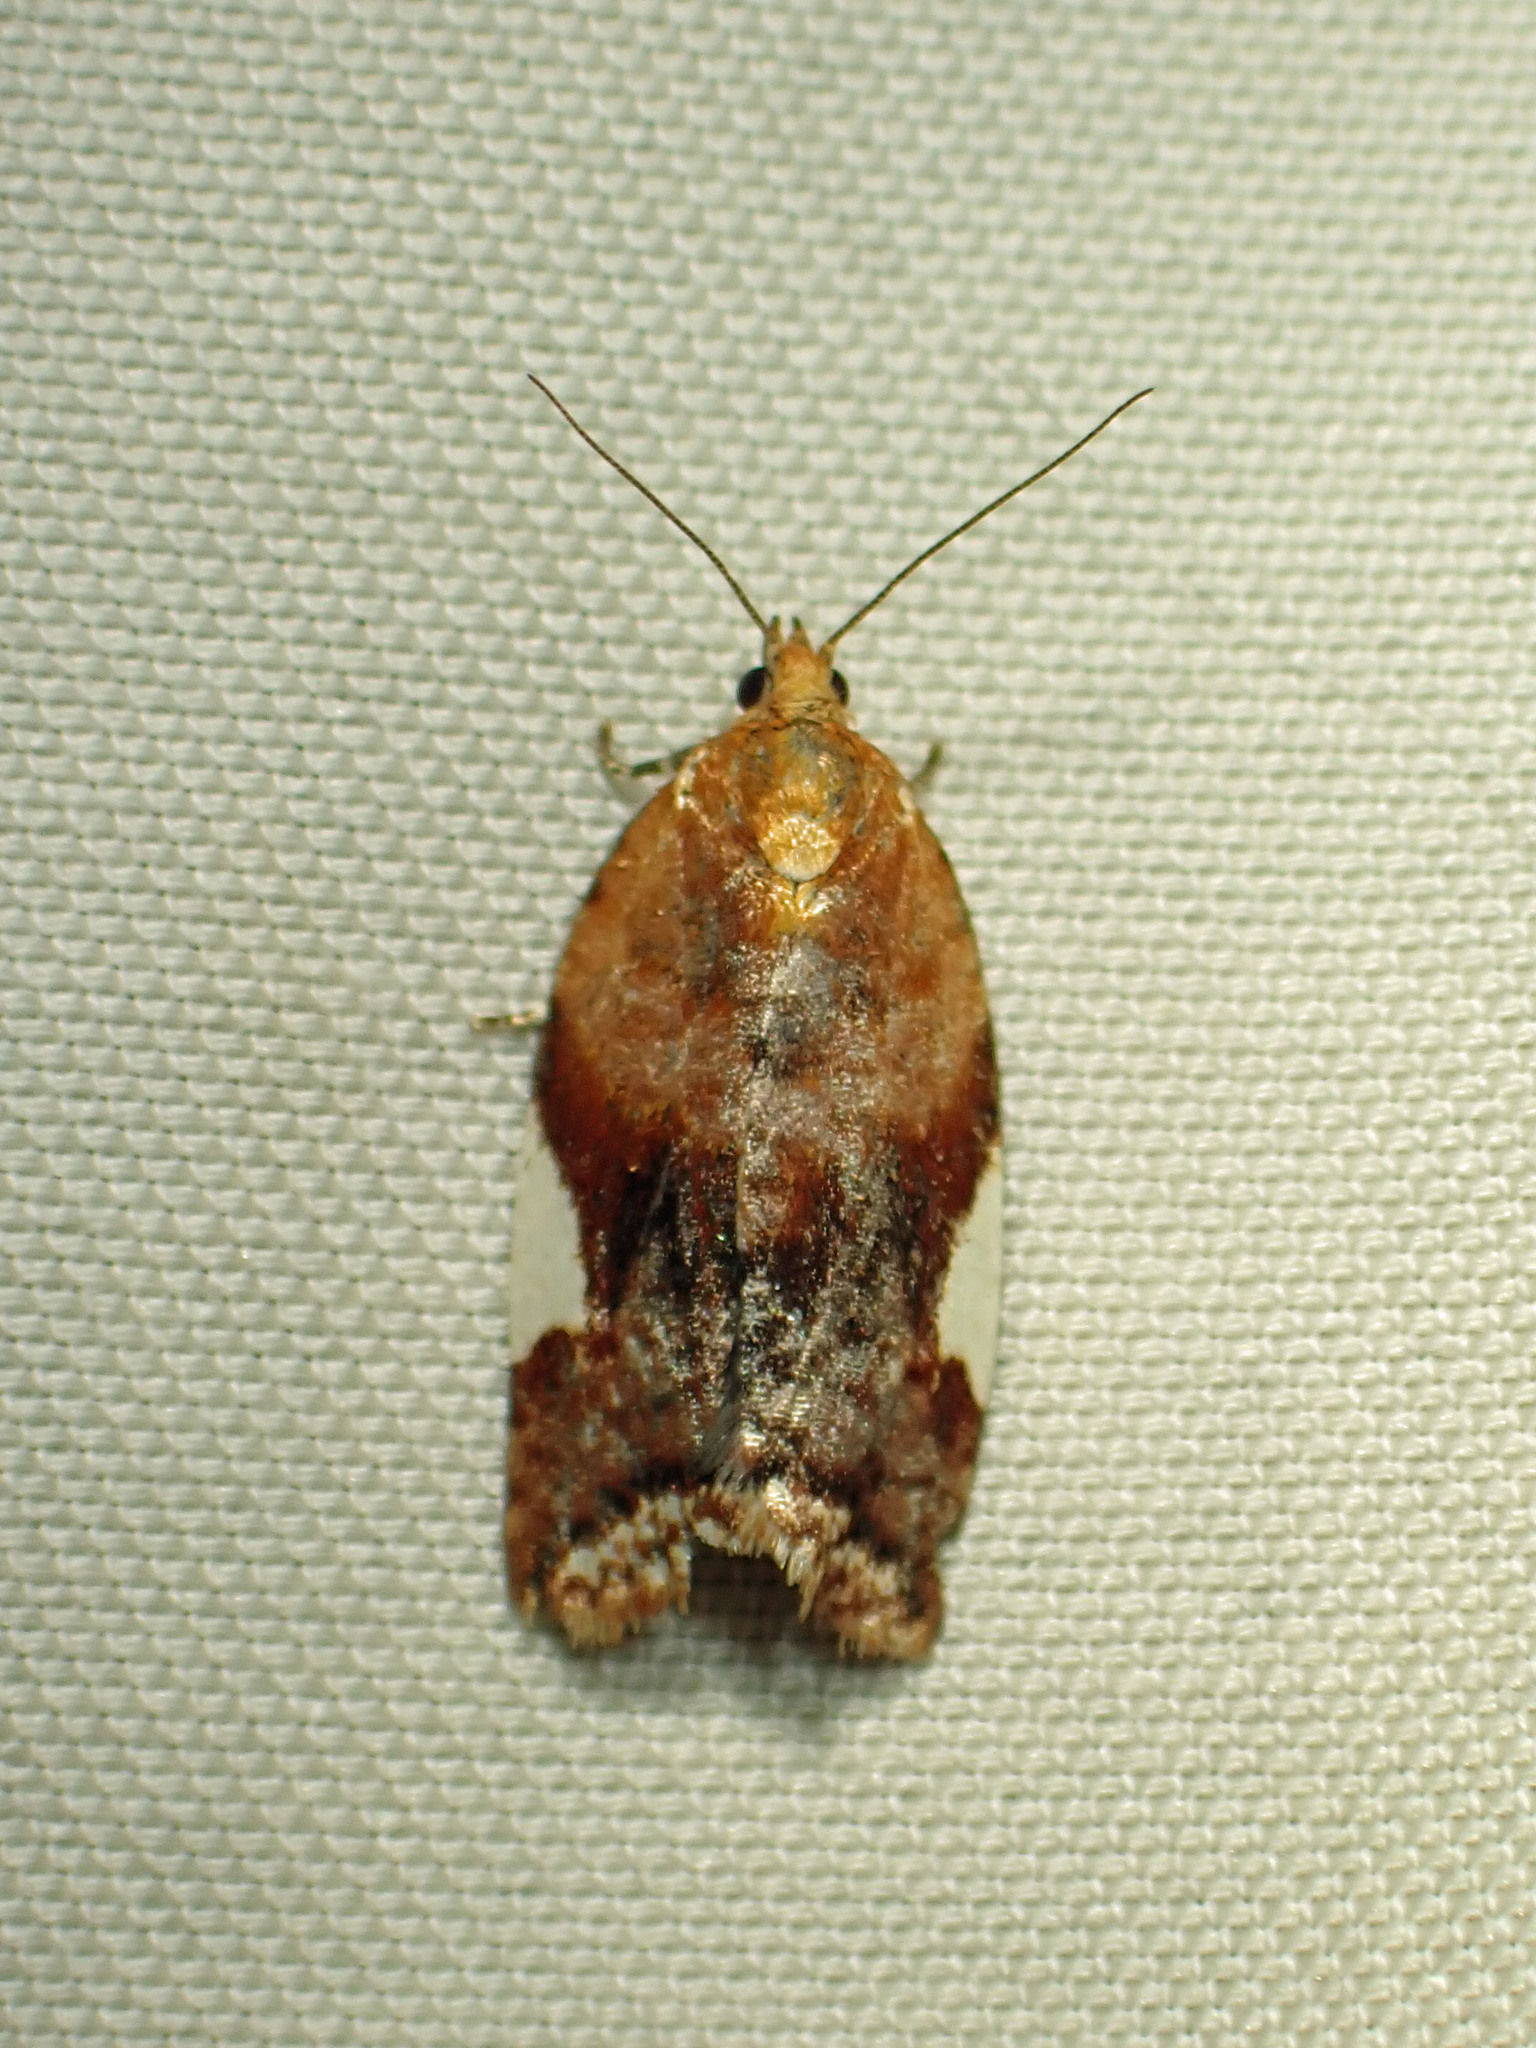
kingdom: Animalia
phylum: Arthropoda
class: Insecta
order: Lepidoptera
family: Tortricidae
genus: Clepsis
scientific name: Clepsis persicana
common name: White triangle tortrix
